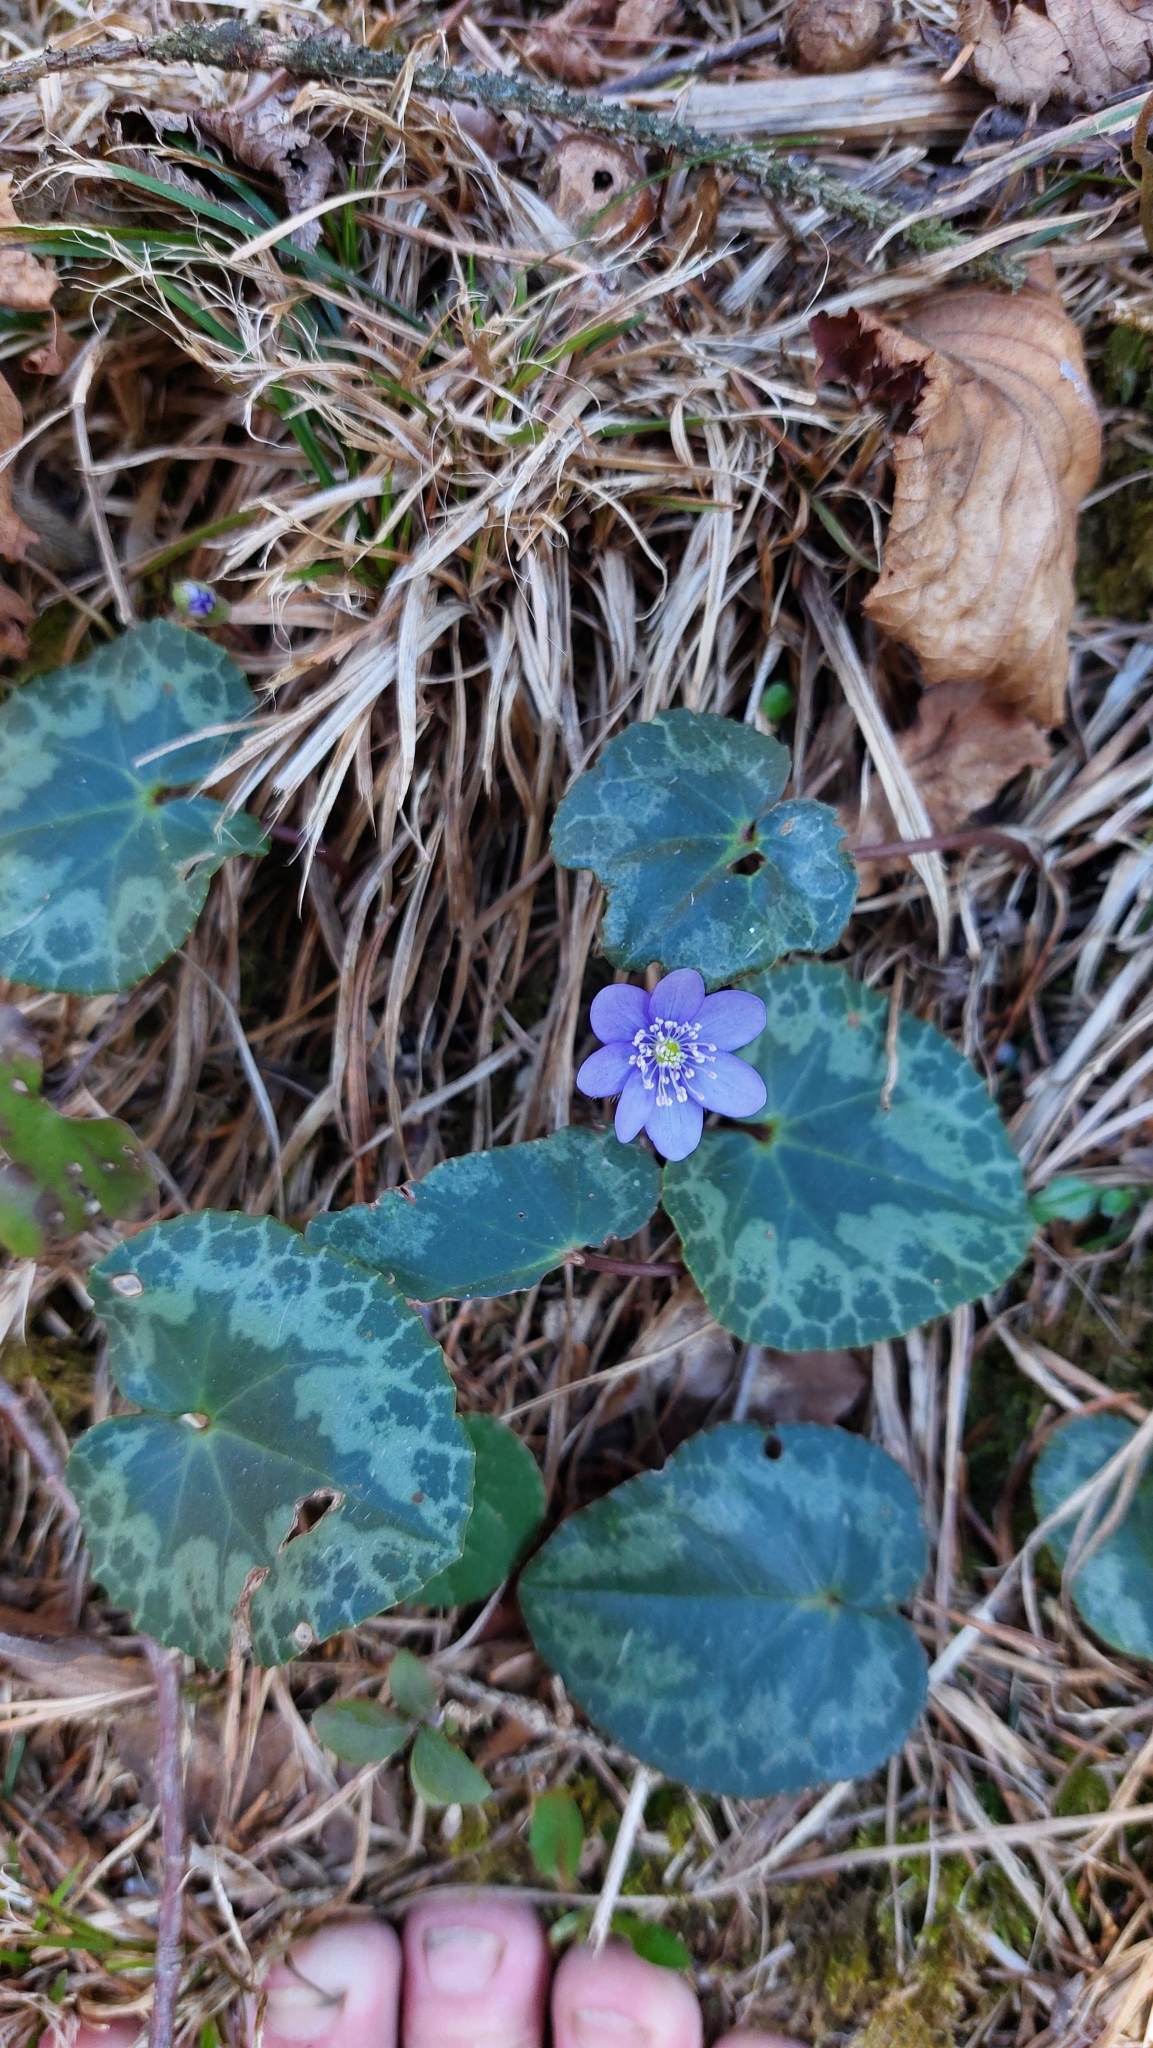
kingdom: Plantae
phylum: Tracheophyta
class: Magnoliopsida
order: Ranunculales
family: Ranunculaceae
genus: Hepatica
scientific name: Hepatica nobilis
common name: Liverleaf
